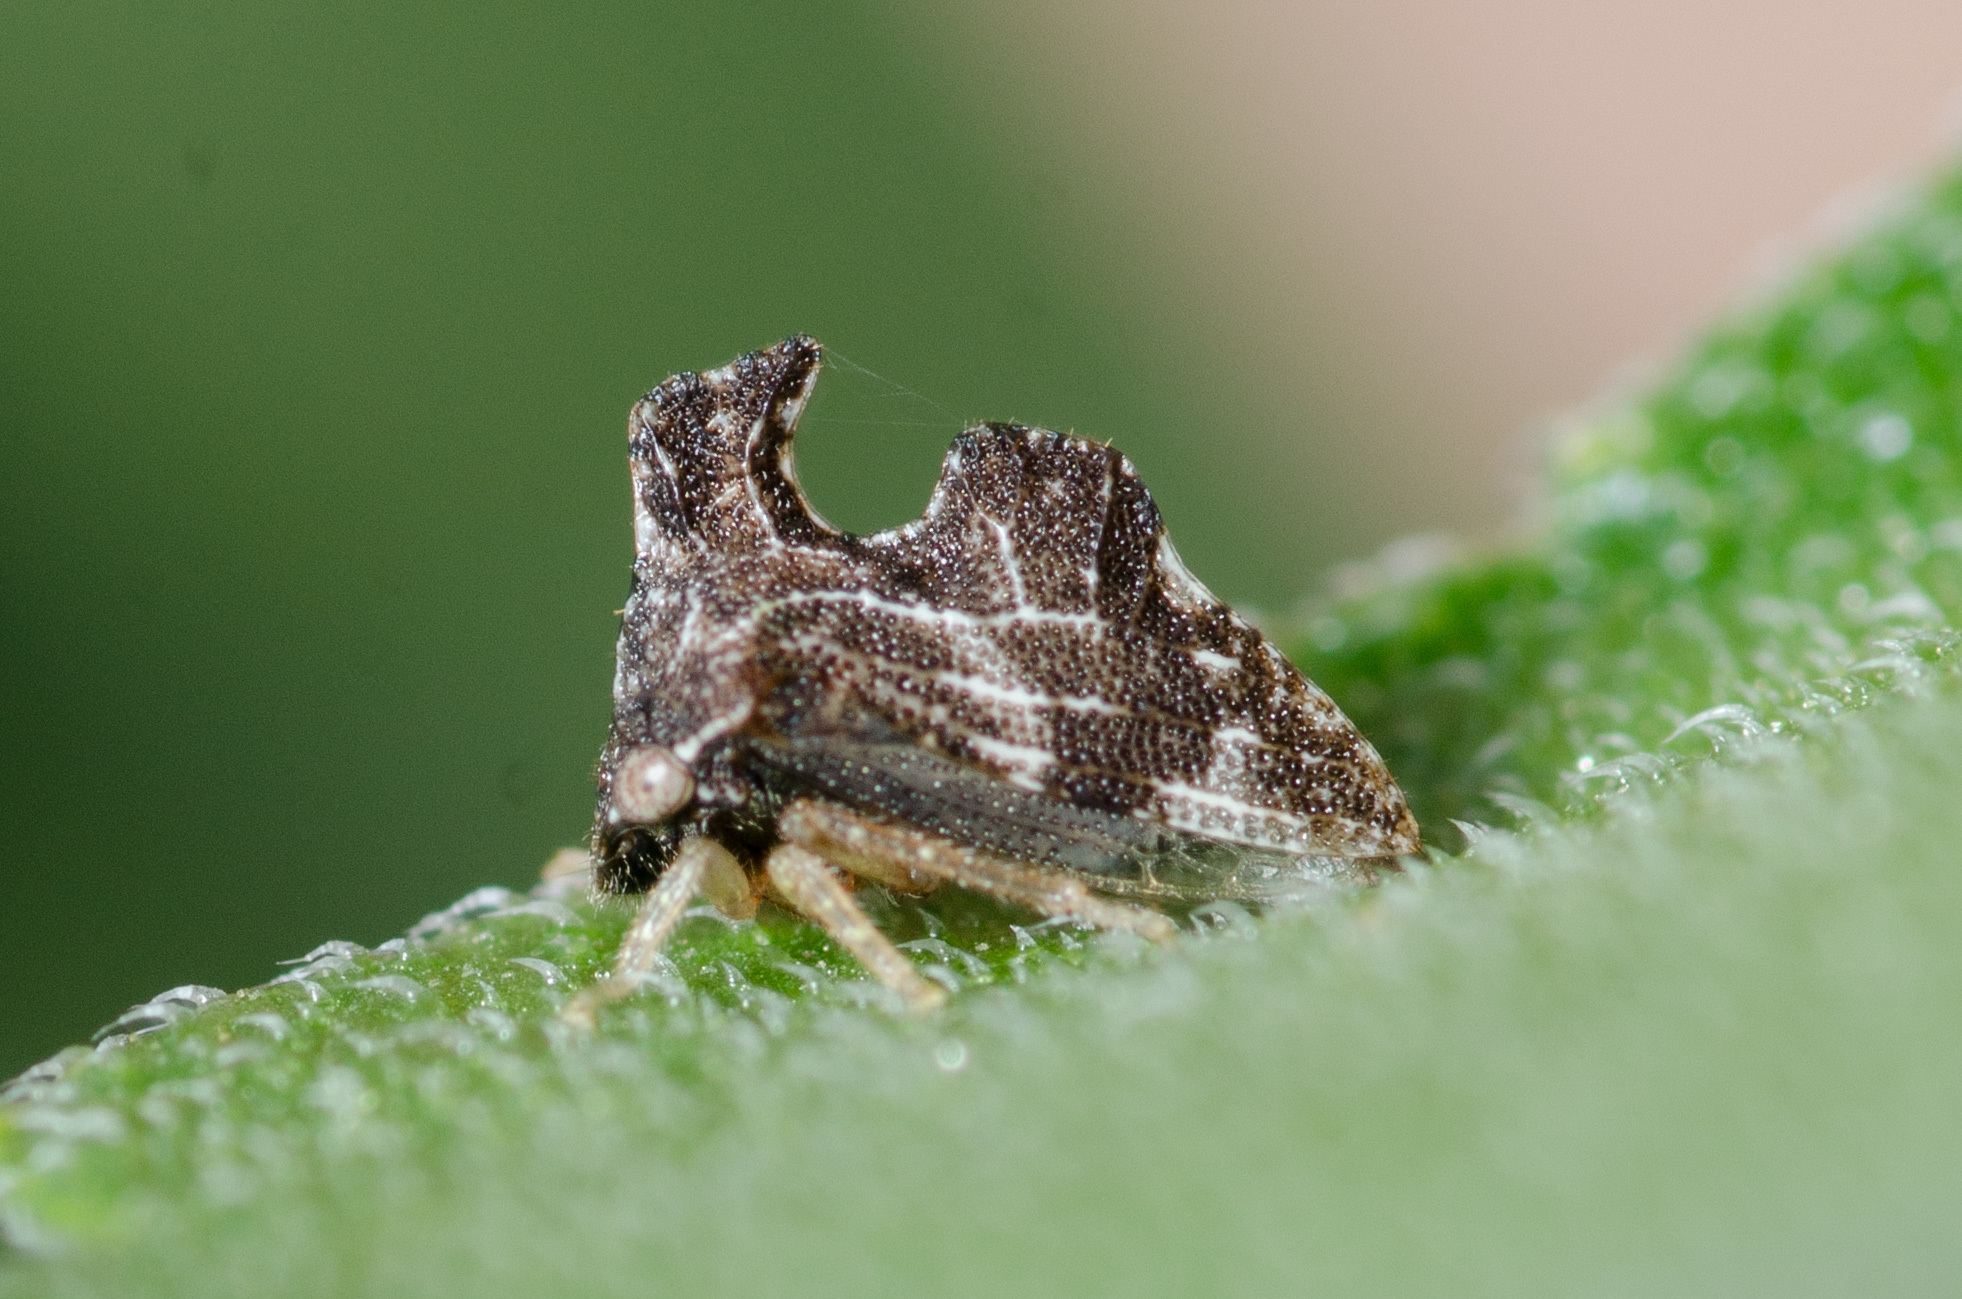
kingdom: Animalia
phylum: Arthropoda
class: Insecta
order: Hemiptera
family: Membracidae
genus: Entylia
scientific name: Entylia carinata
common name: Keeled treehopper
